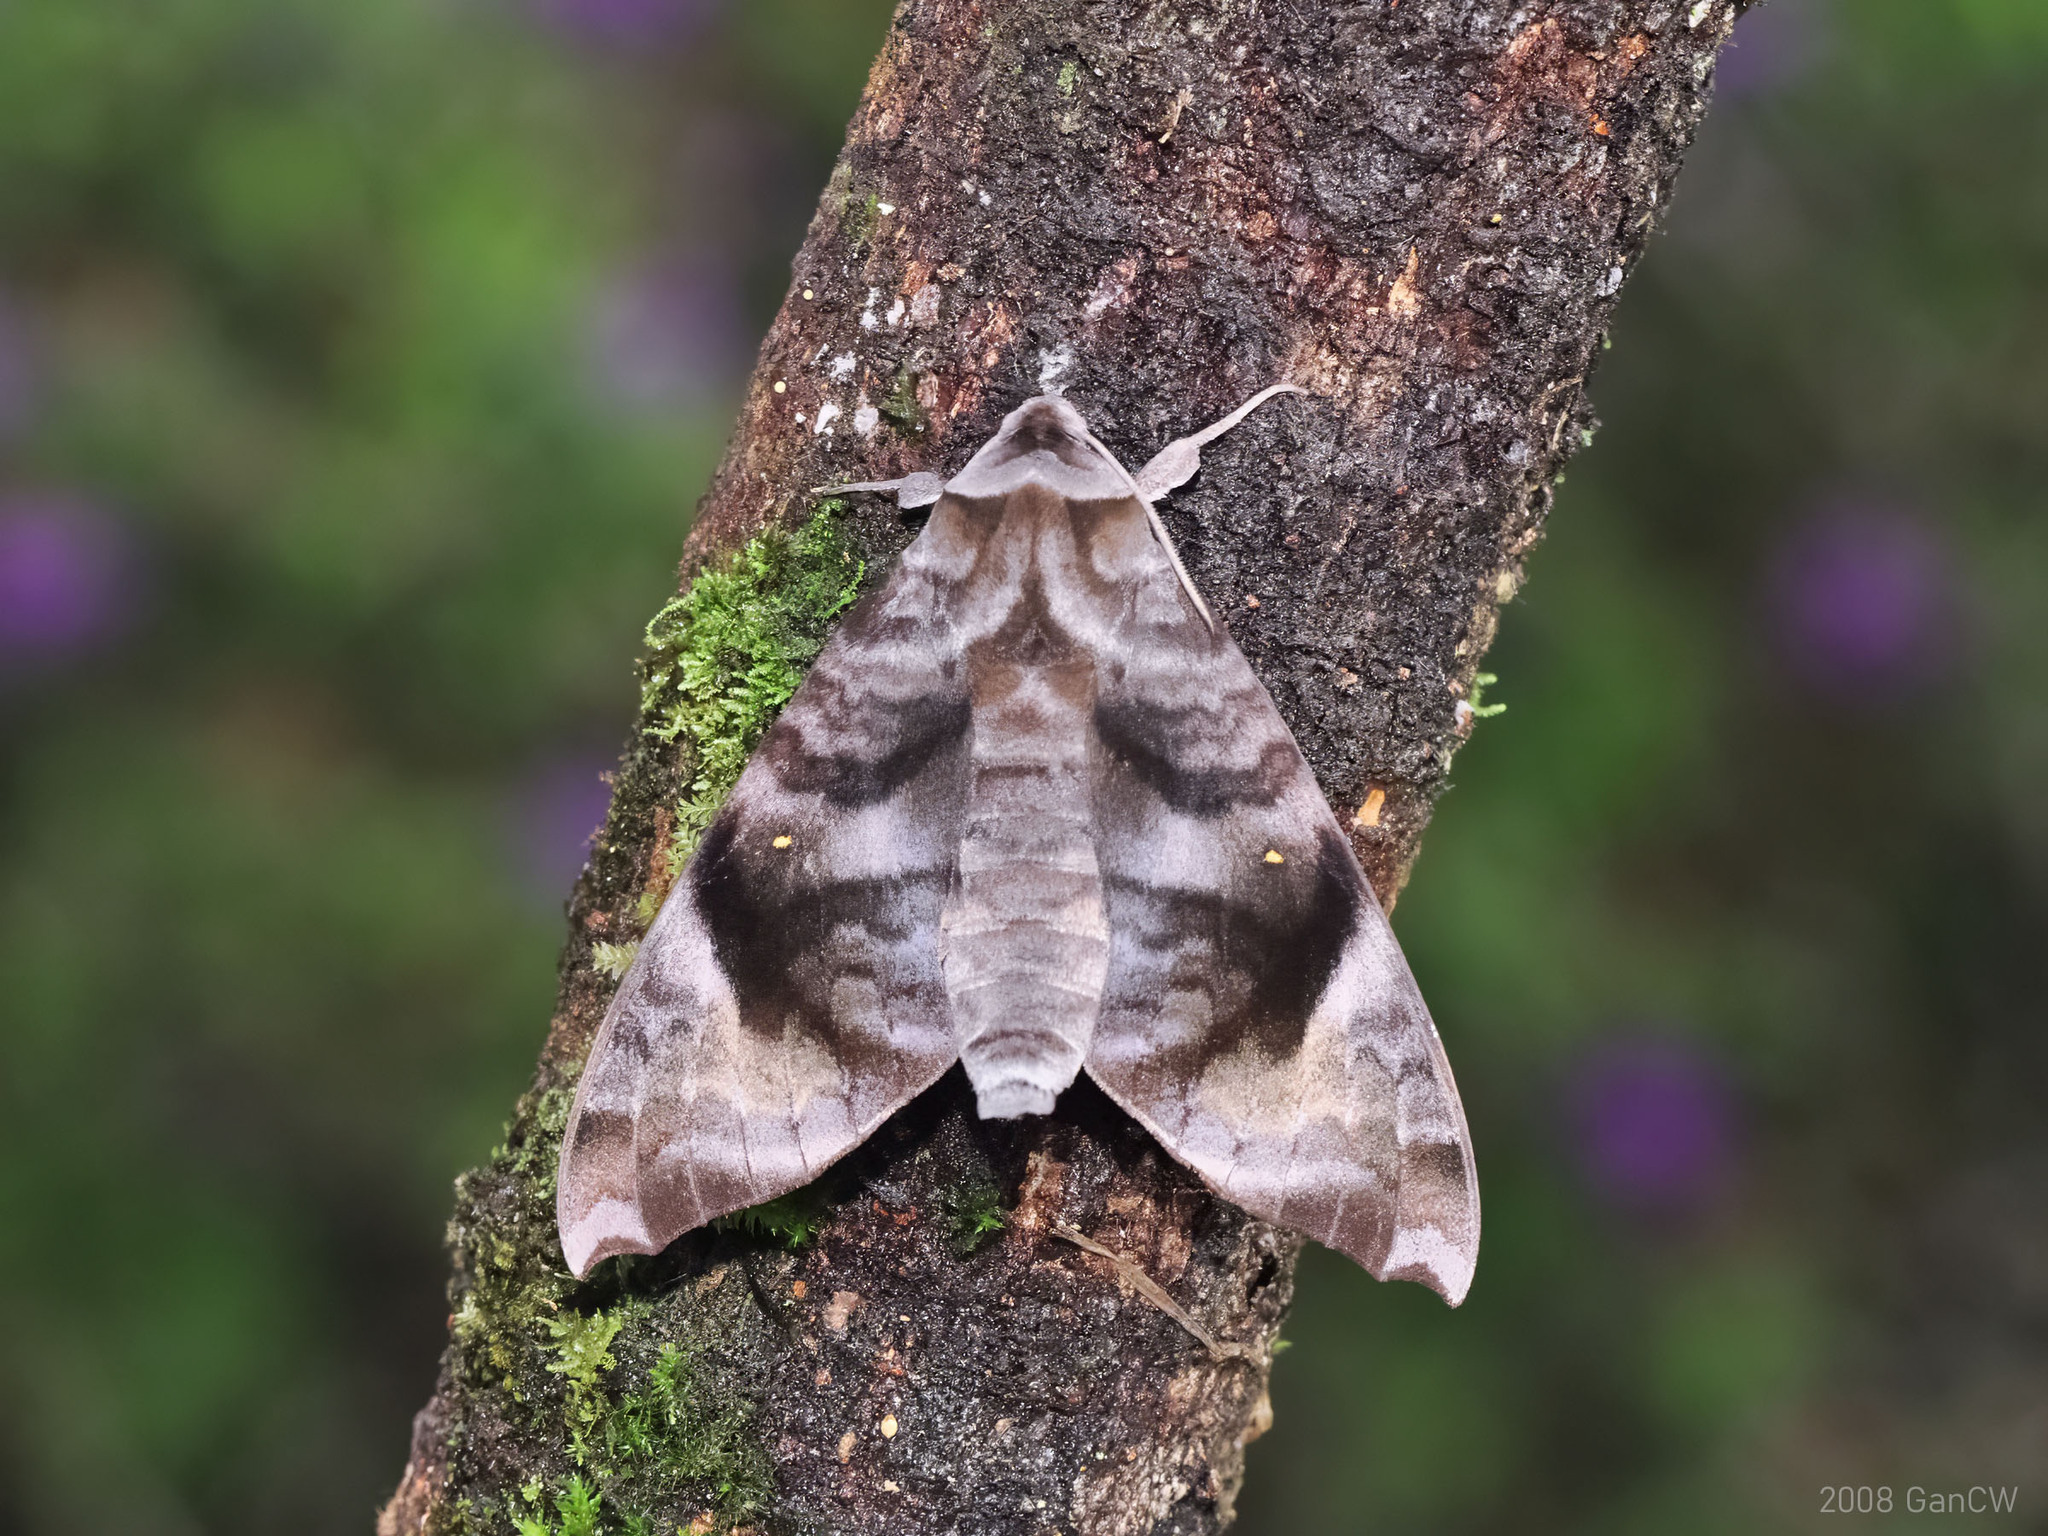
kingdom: Animalia
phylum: Arthropoda
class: Insecta
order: Lepidoptera
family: Sphingidae
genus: Acosmeryx
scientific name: Acosmeryx pseudonaga
